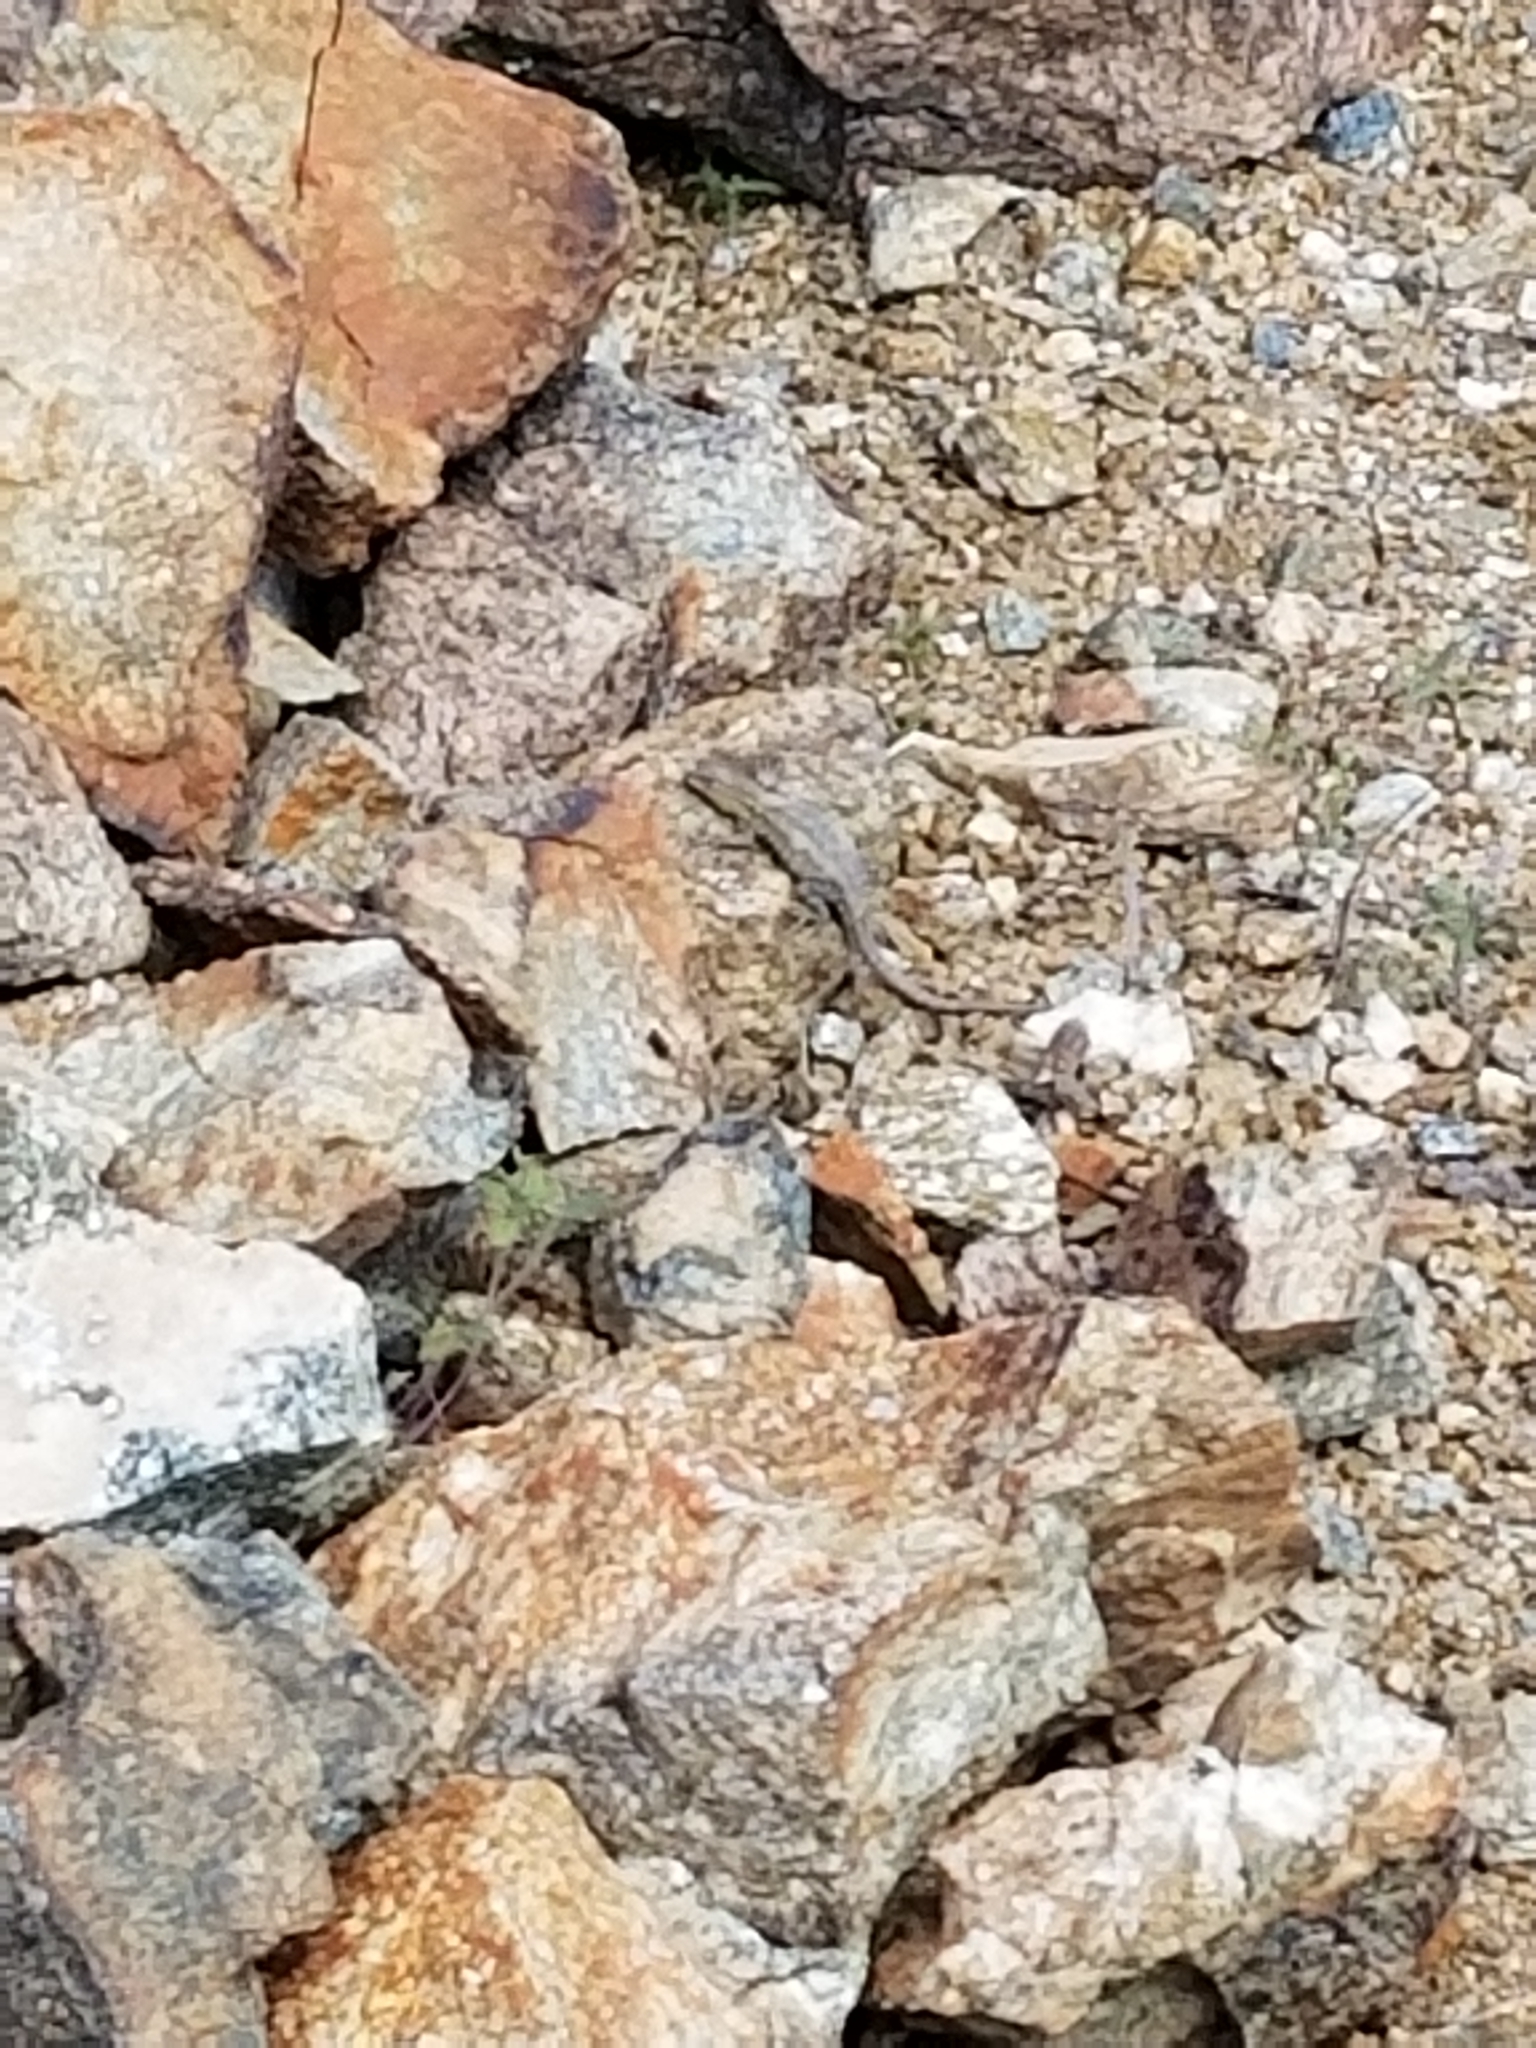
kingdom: Animalia
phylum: Chordata
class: Squamata
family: Phrynosomatidae
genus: Uta
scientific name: Uta stansburiana
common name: Side-blotched lizard
